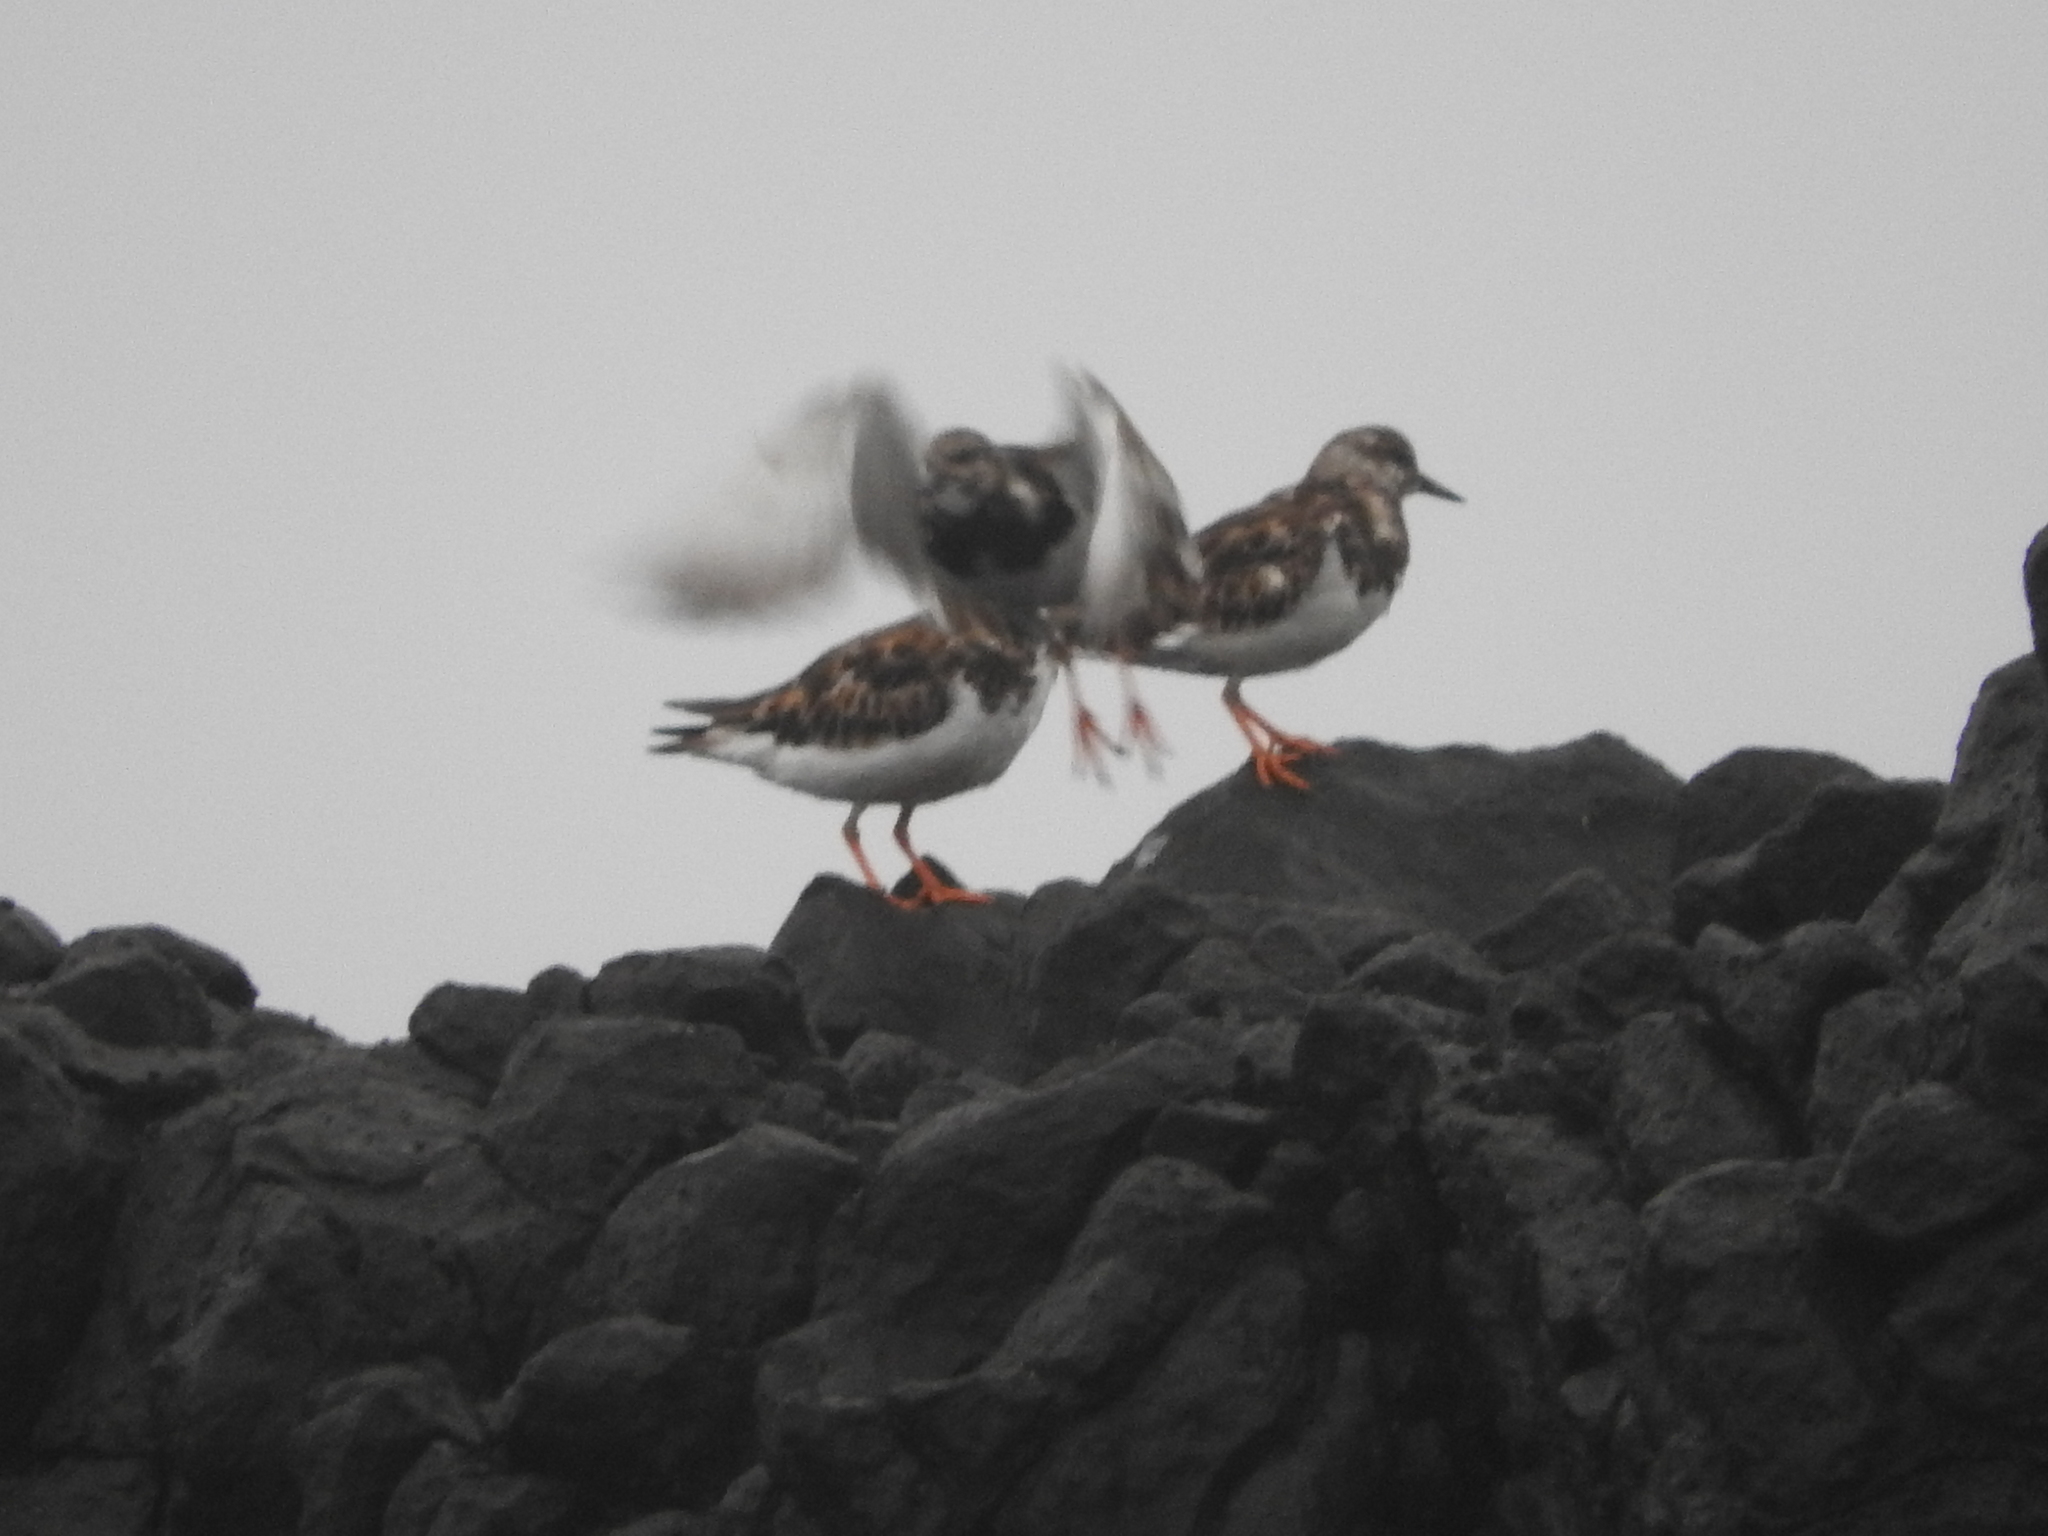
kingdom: Animalia
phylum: Chordata
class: Aves
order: Charadriiformes
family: Scolopacidae
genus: Arenaria
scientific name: Arenaria interpres
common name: Ruddy turnstone
